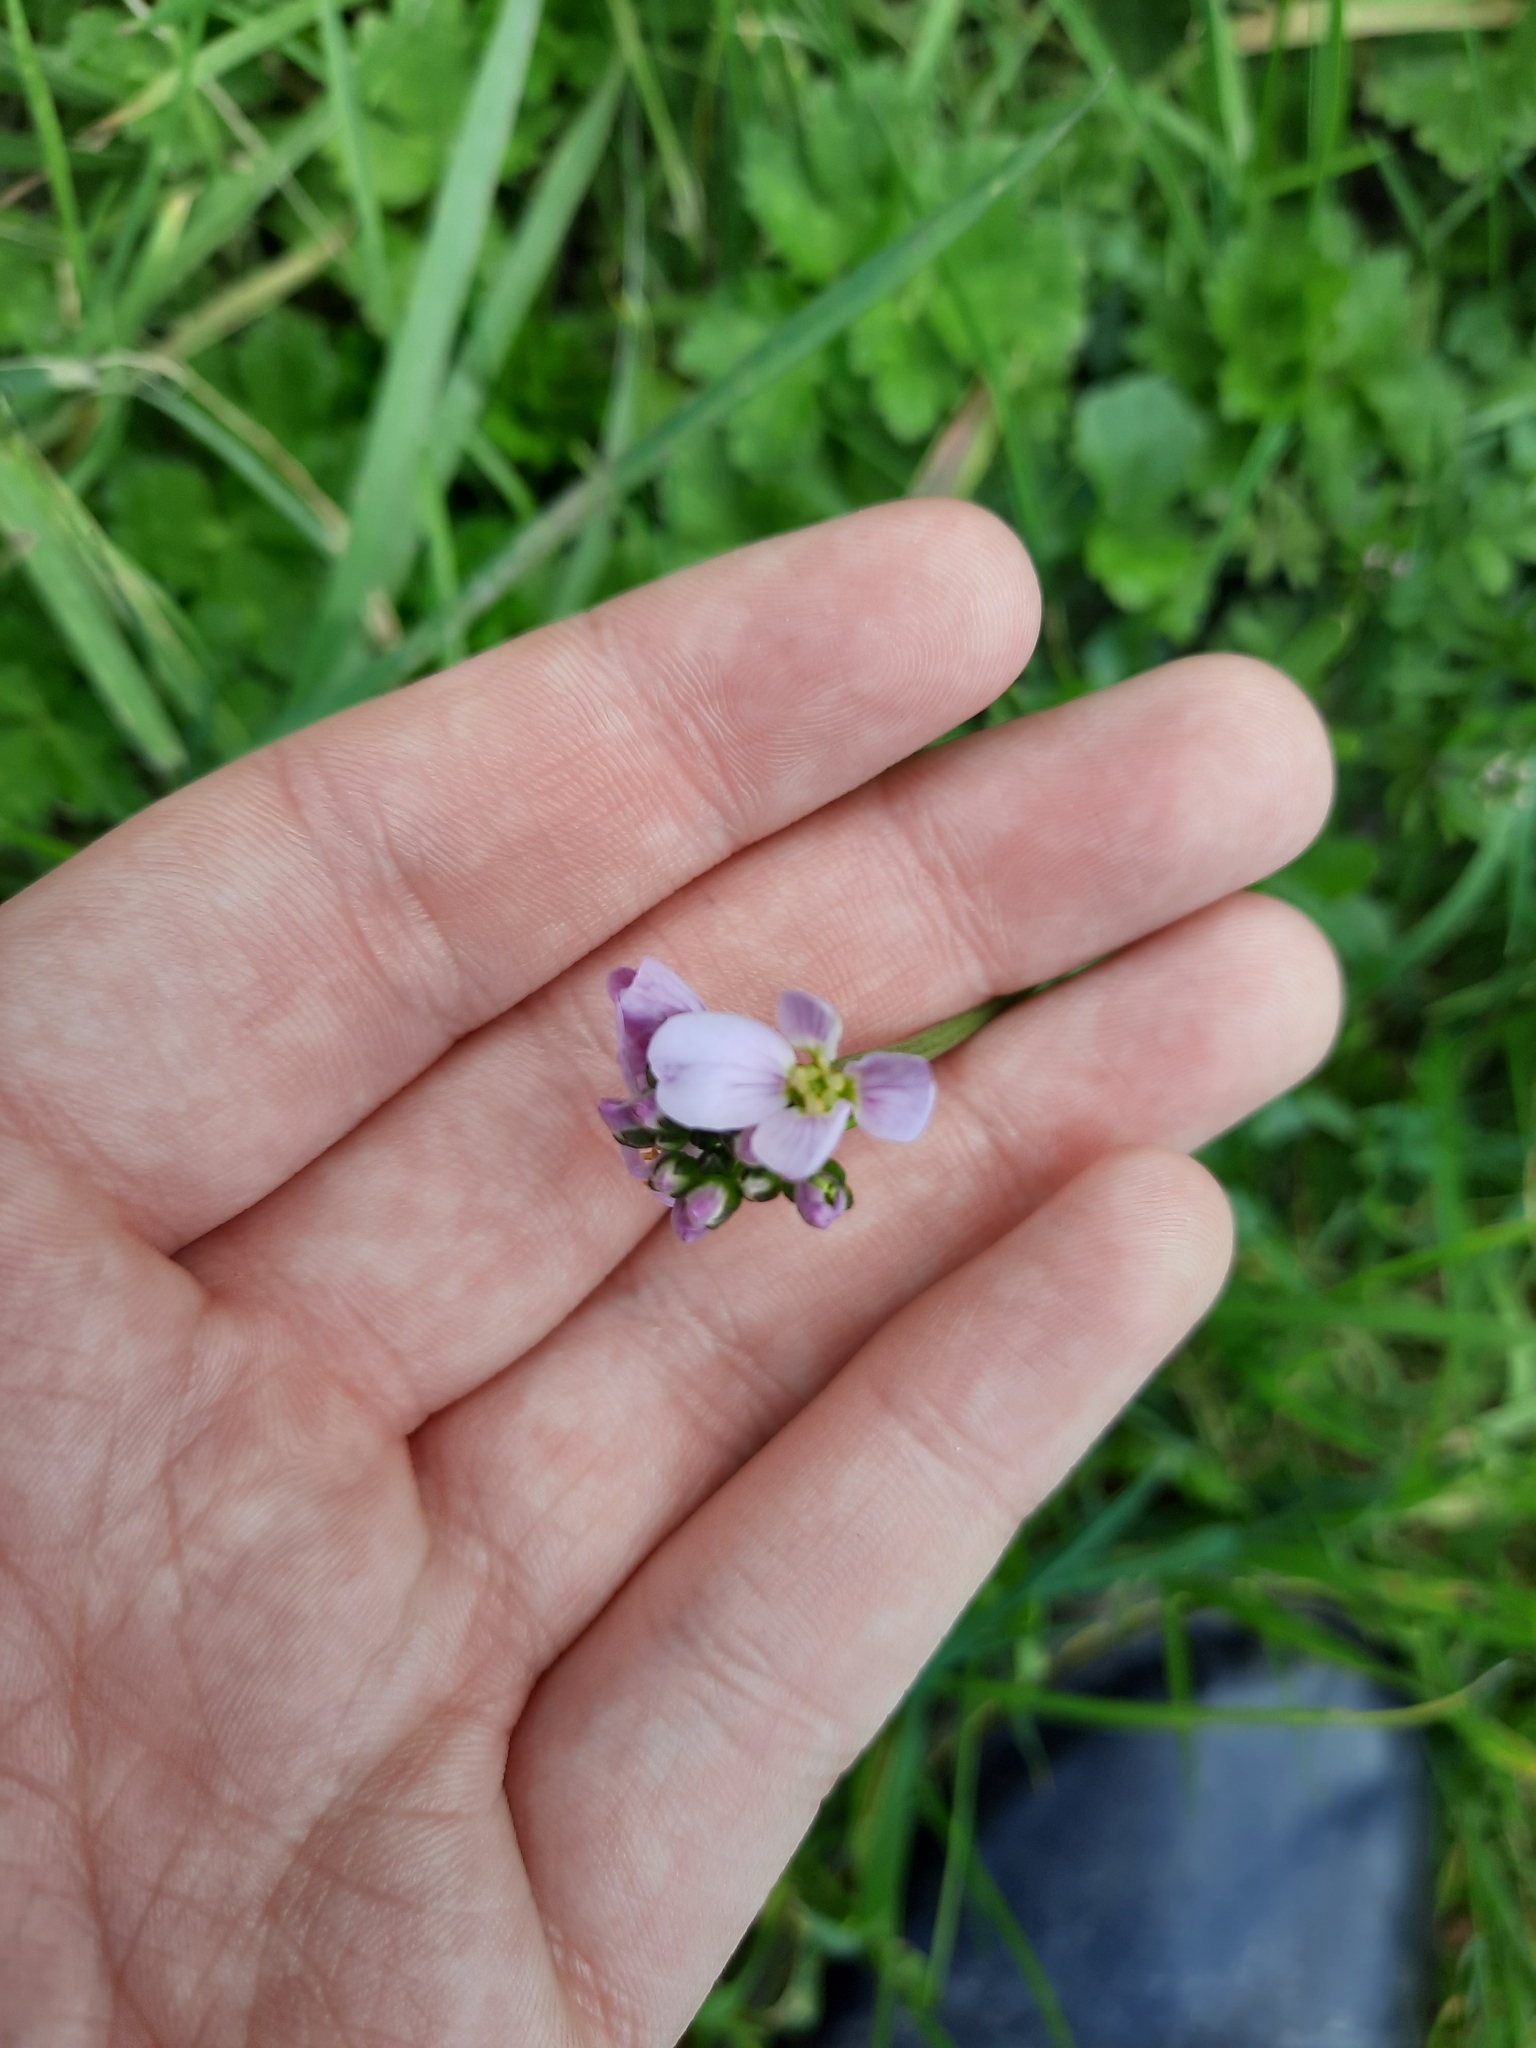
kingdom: Plantae
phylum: Tracheophyta
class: Magnoliopsida
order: Brassicales
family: Brassicaceae
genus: Cardamine
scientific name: Cardamine pratensis
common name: Cuckoo flower
